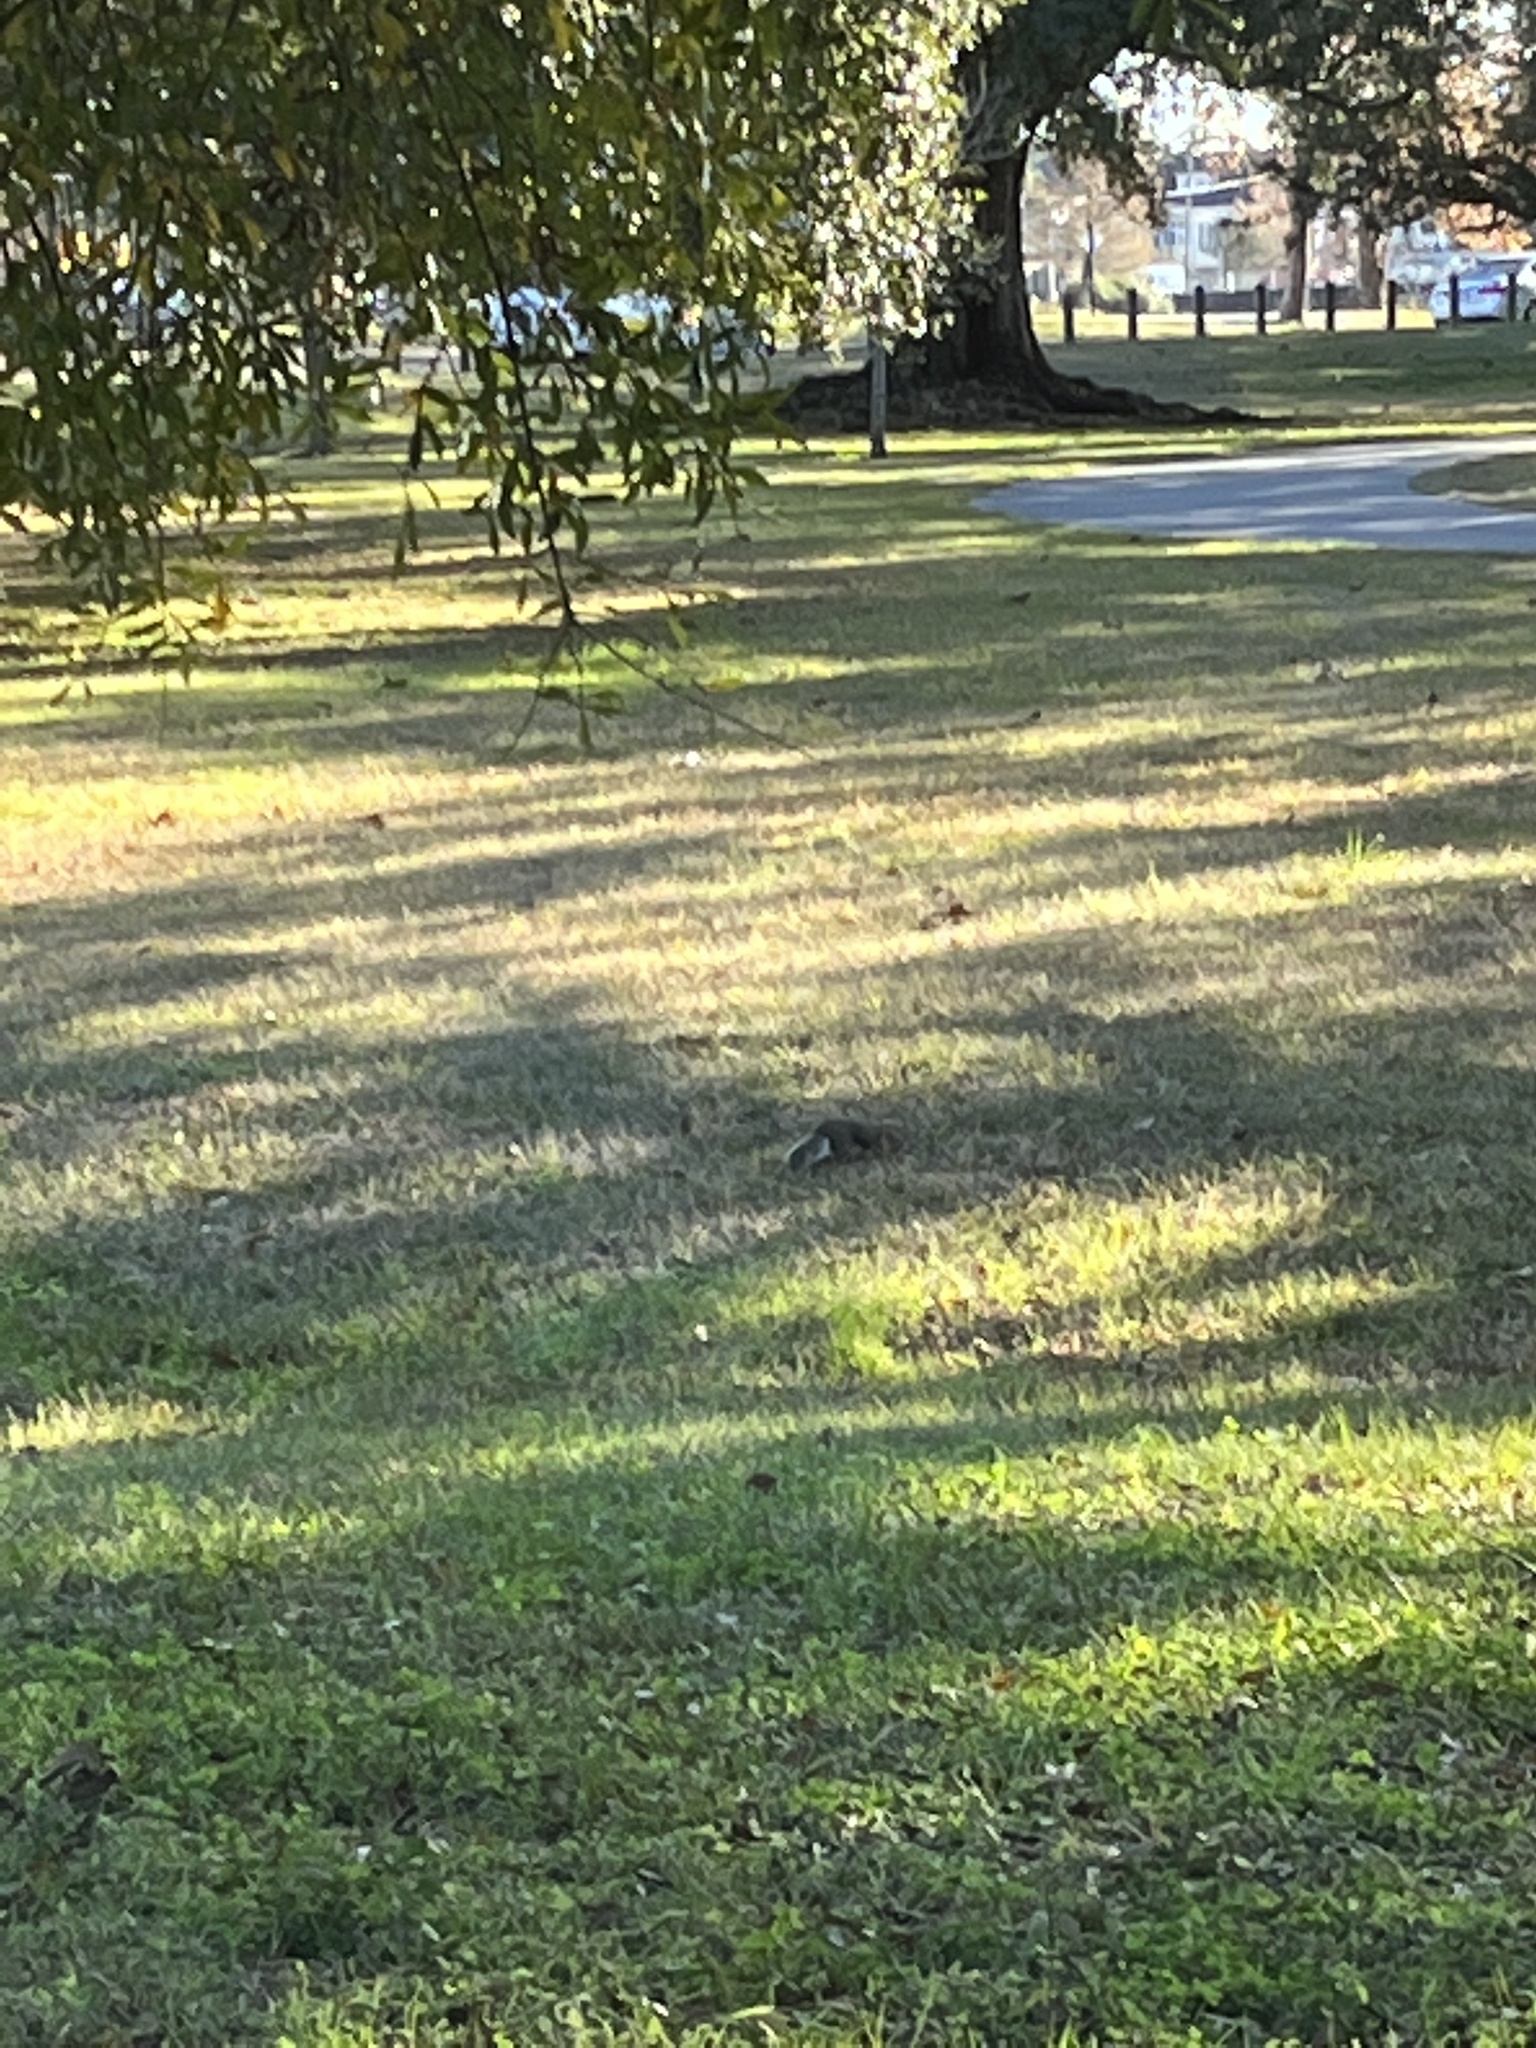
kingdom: Animalia
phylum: Chordata
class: Mammalia
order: Rodentia
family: Sciuridae
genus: Sciurus
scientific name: Sciurus carolinensis
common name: Eastern gray squirrel
